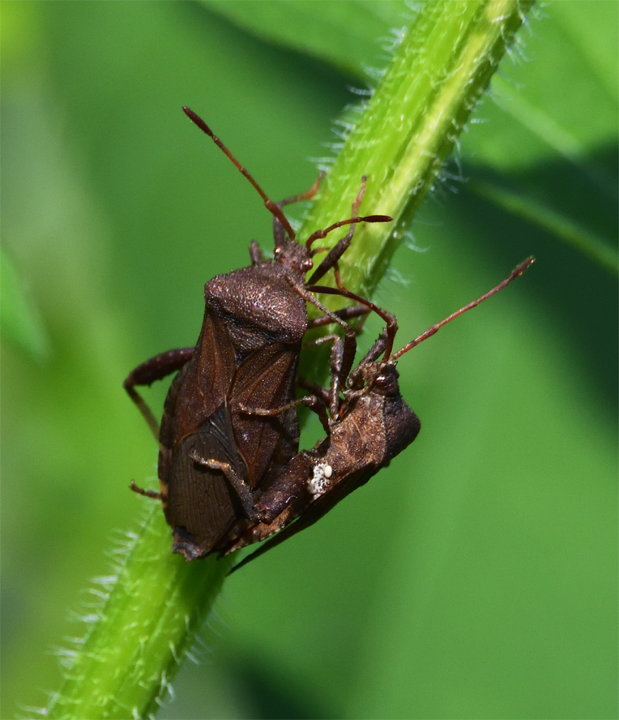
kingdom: Animalia
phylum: Arthropoda
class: Insecta
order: Hemiptera
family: Coreidae
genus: Euthochtha
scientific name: Euthochtha galeator
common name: Helmeted squash bug
